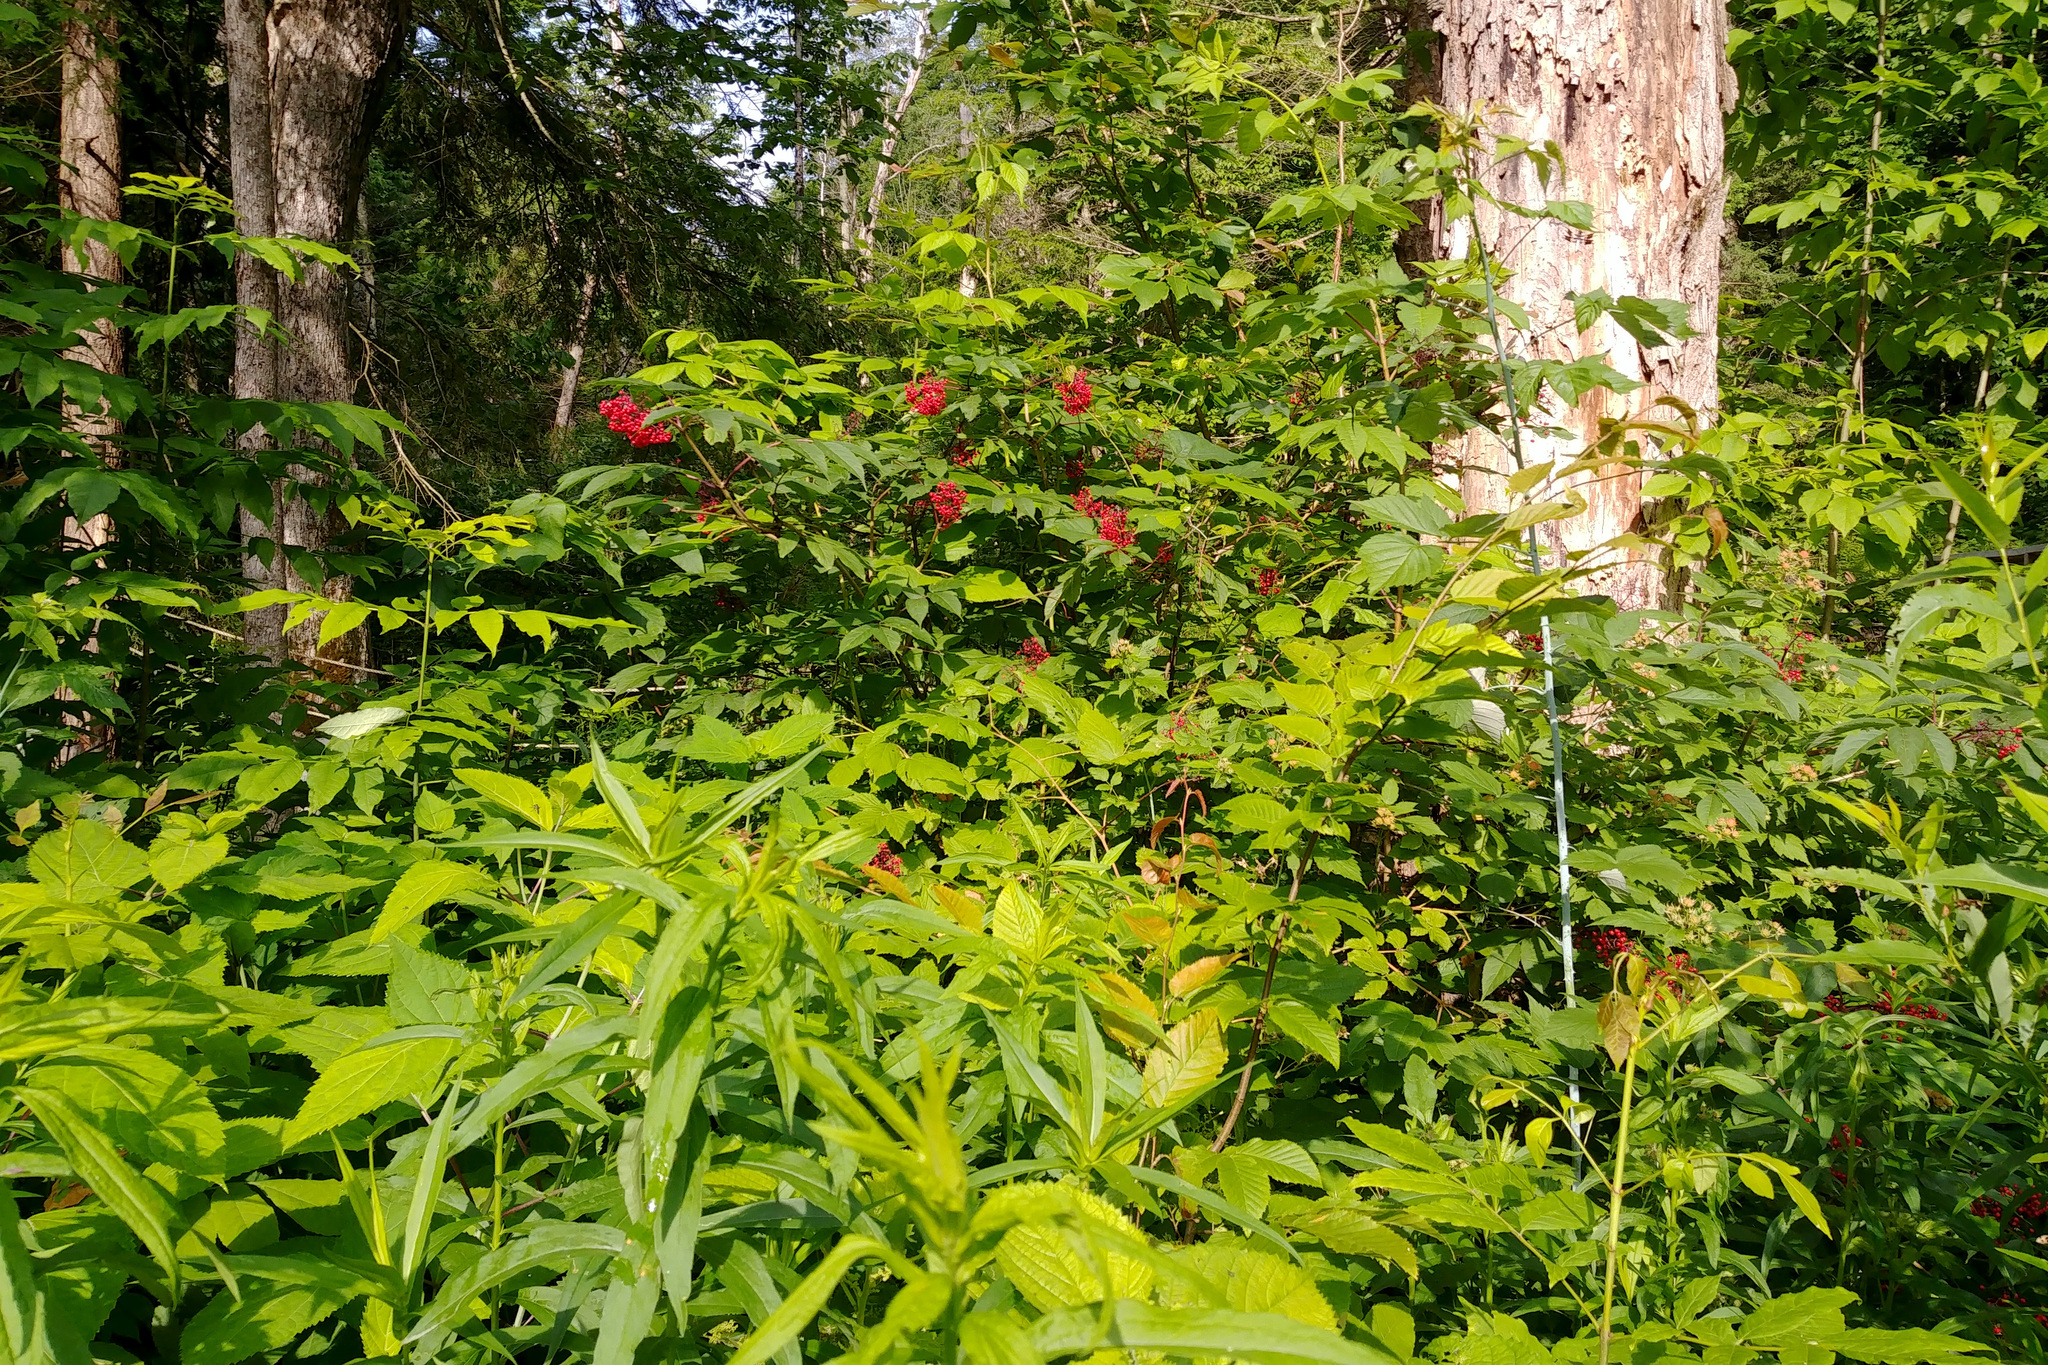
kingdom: Plantae
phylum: Tracheophyta
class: Magnoliopsida
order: Dipsacales
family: Viburnaceae
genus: Sambucus
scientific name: Sambucus racemosa
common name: Red-berried elder
